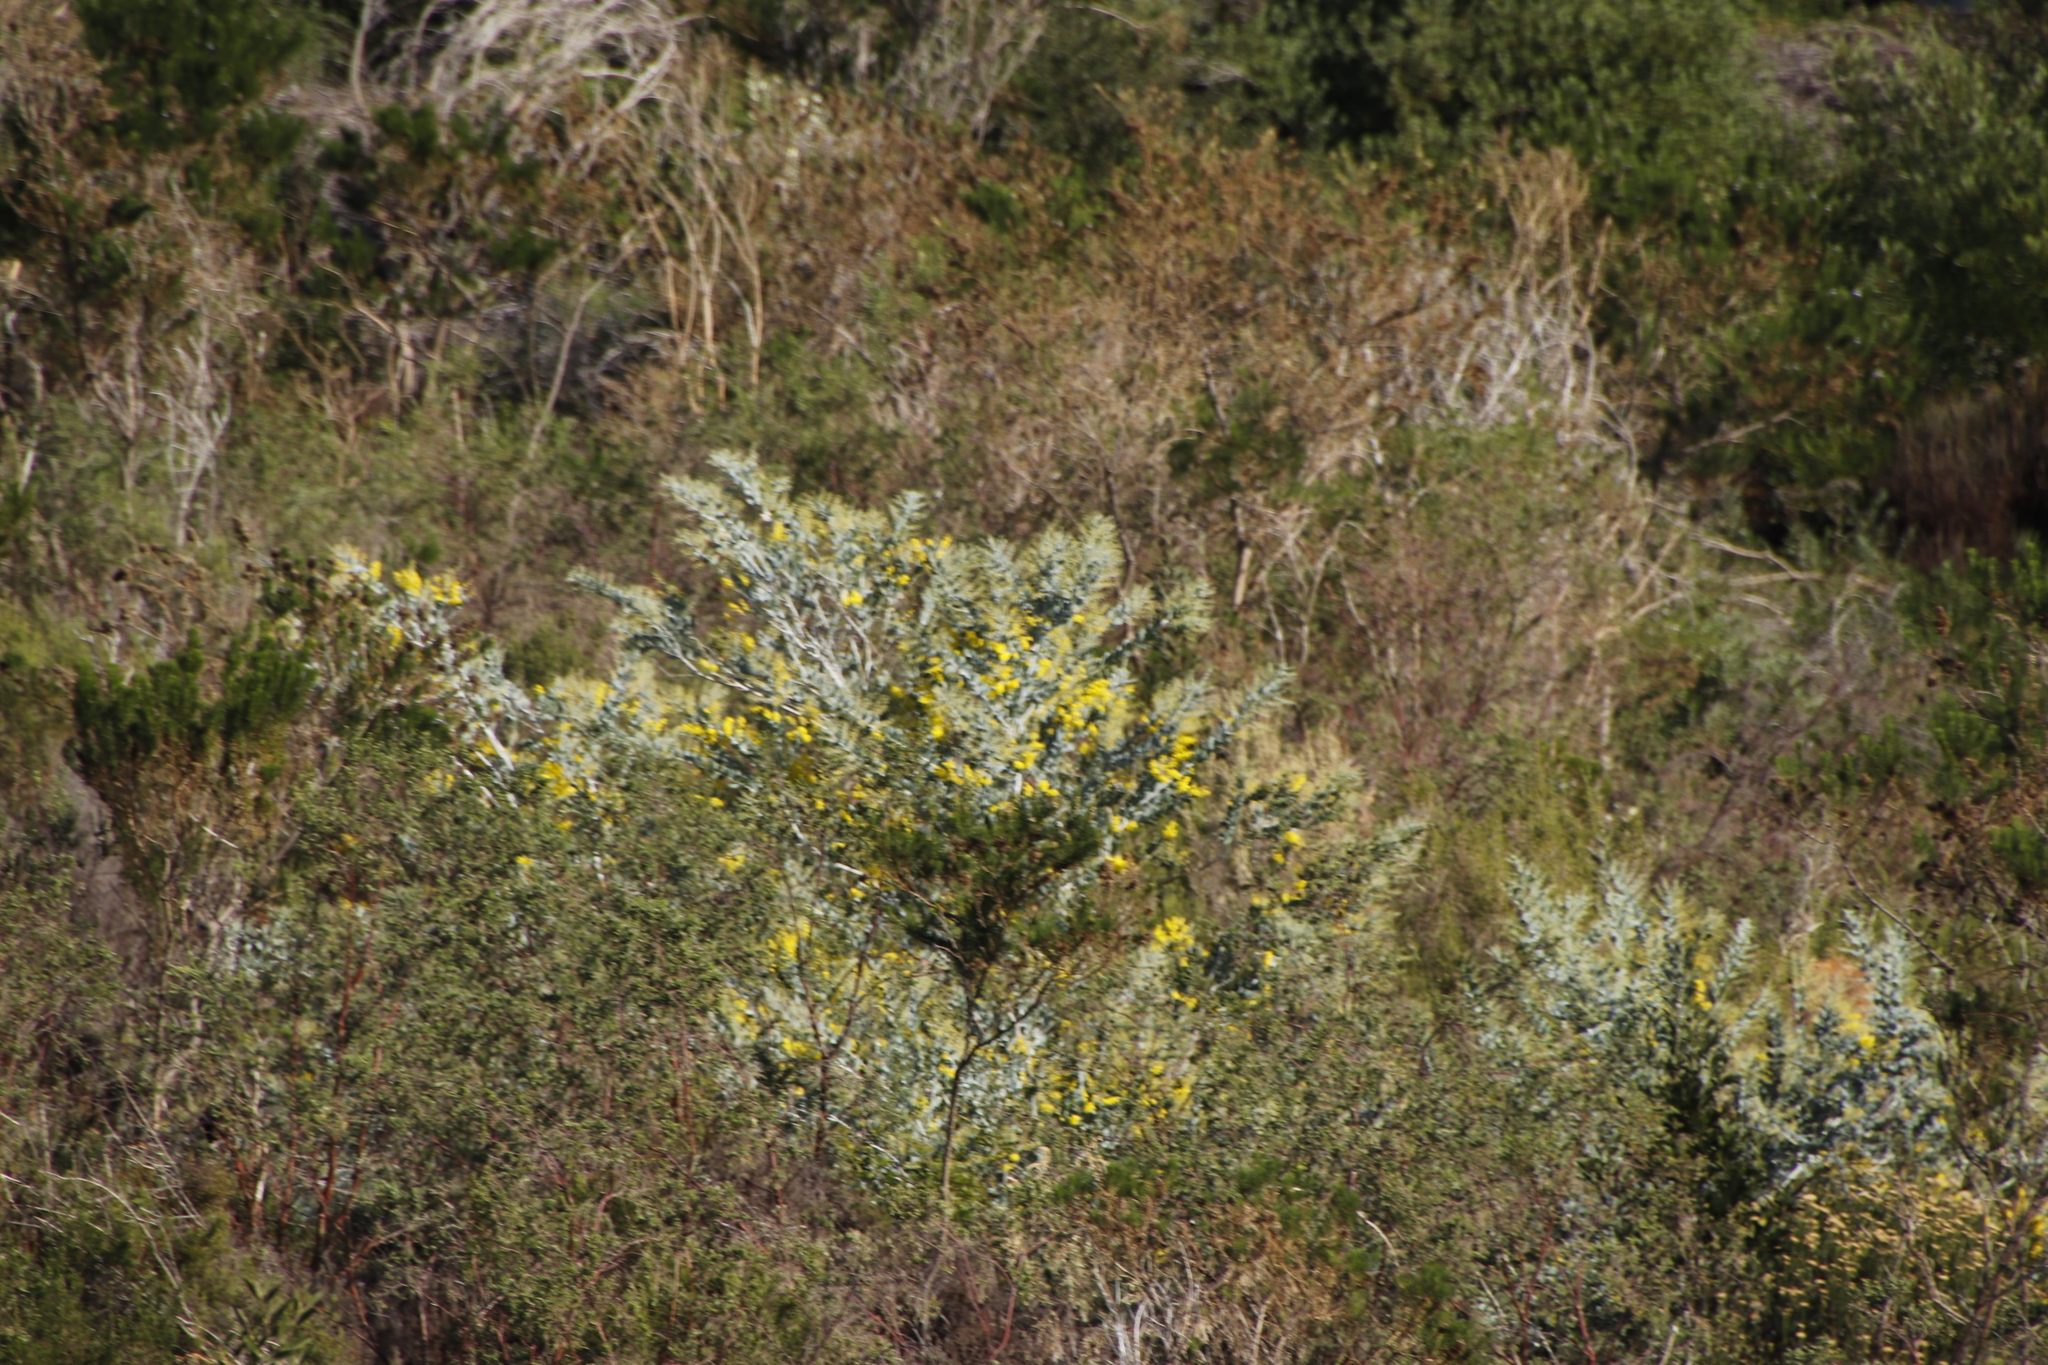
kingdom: Plantae
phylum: Tracheophyta
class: Magnoliopsida
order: Fabales
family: Fabaceae
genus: Acacia
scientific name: Acacia podalyriifolia
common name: Pearl wattle
